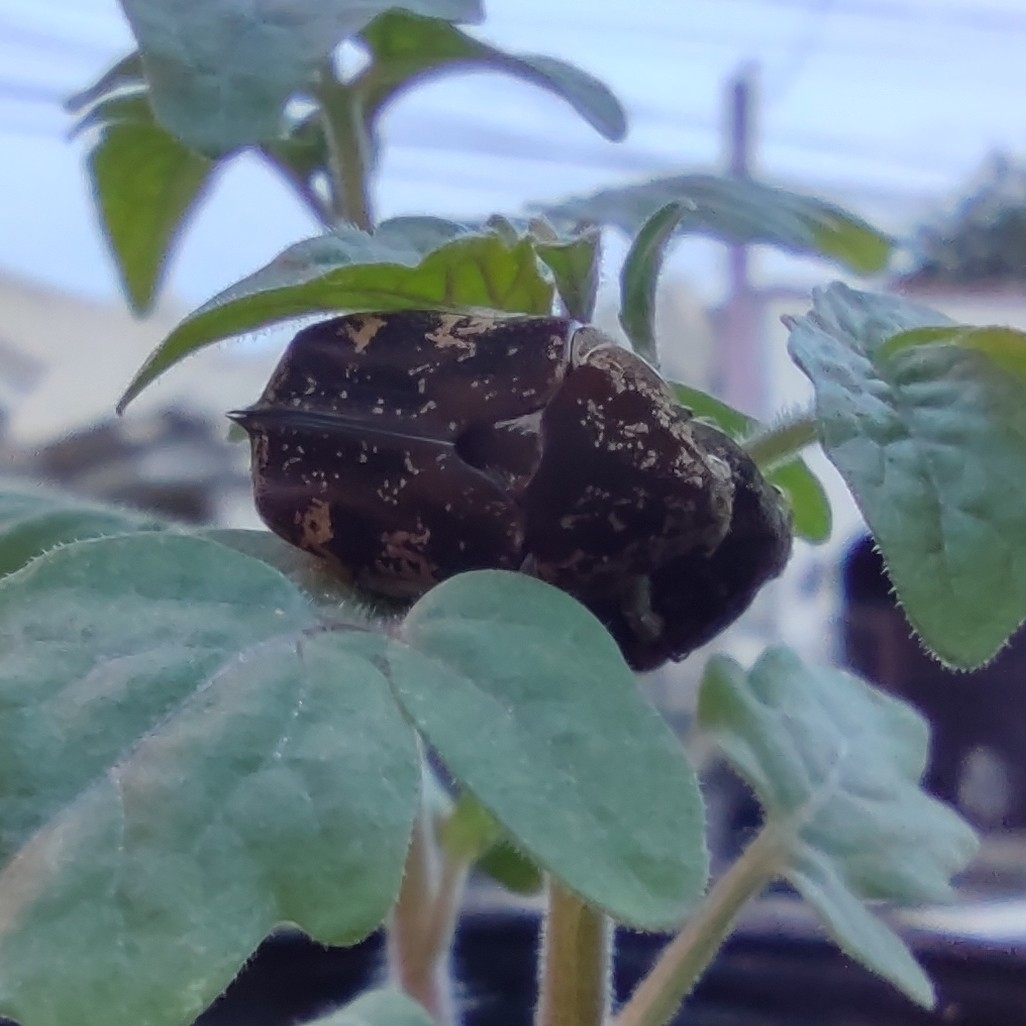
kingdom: Animalia
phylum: Arthropoda
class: Insecta
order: Coleoptera
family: Scarabaeidae
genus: Protaetia
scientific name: Protaetia fusca
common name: Mango flower beetle
